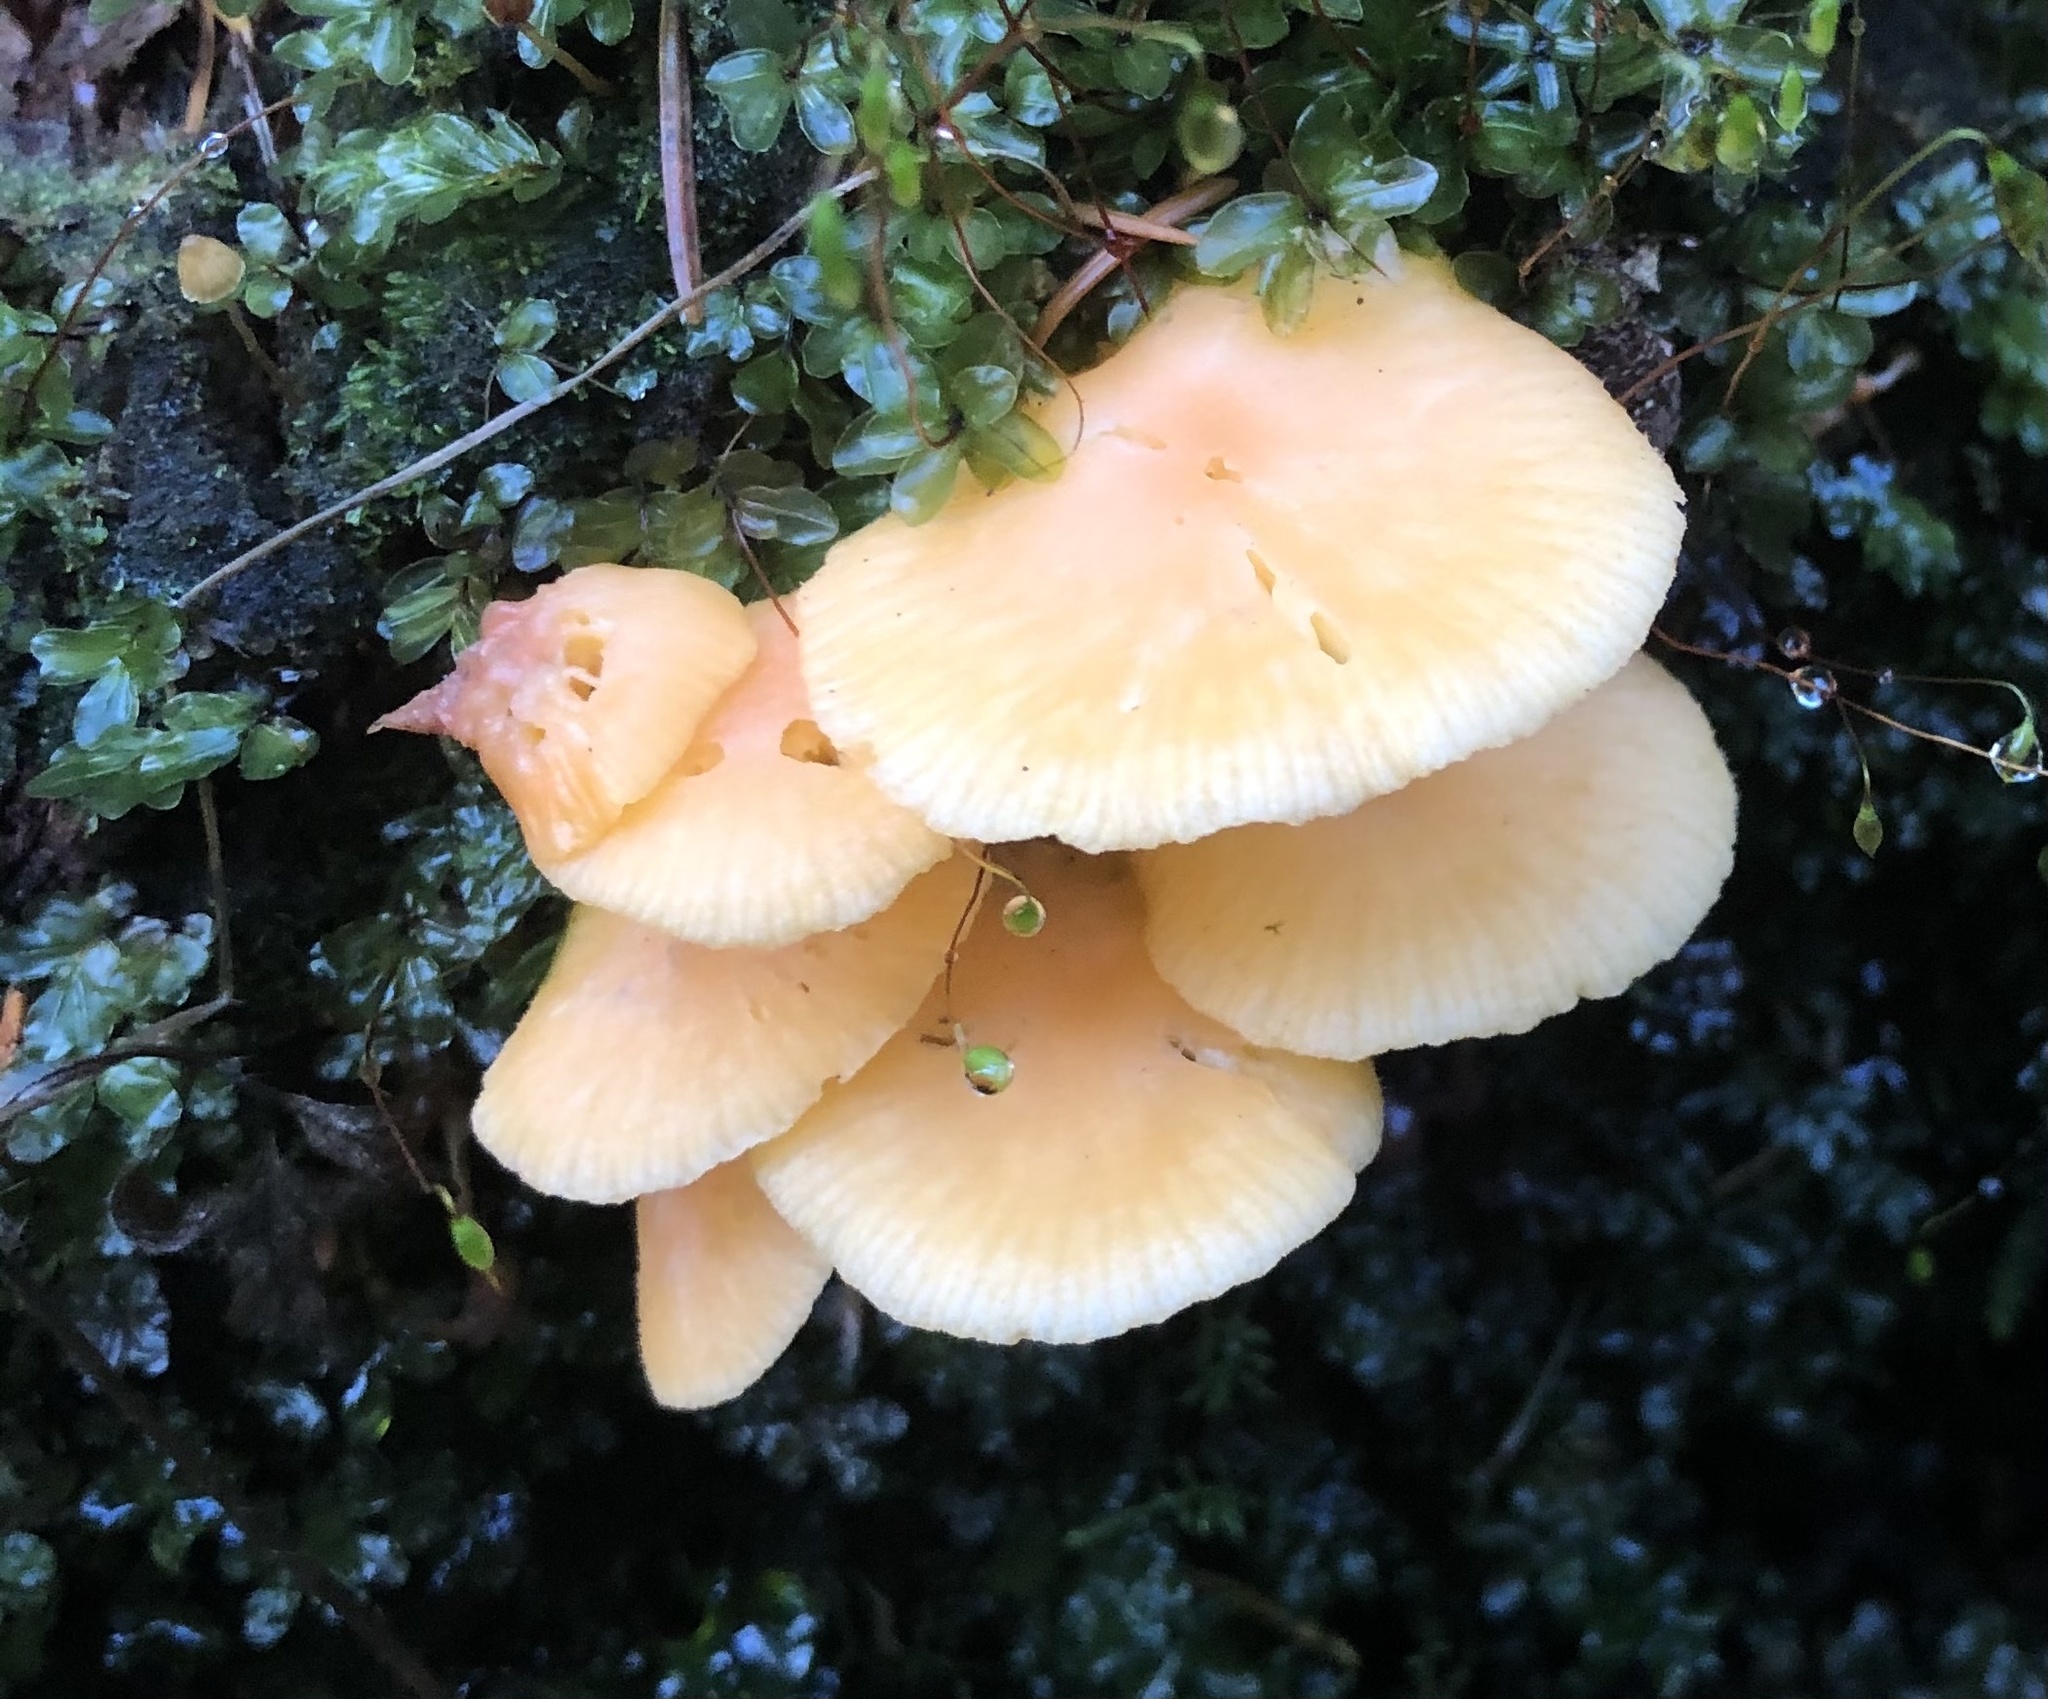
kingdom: Fungi
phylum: Basidiomycota
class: Agaricomycetes
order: Agaricales
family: Hygrophoraceae
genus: Chrysomphalina
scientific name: Chrysomphalina aurantiaca
